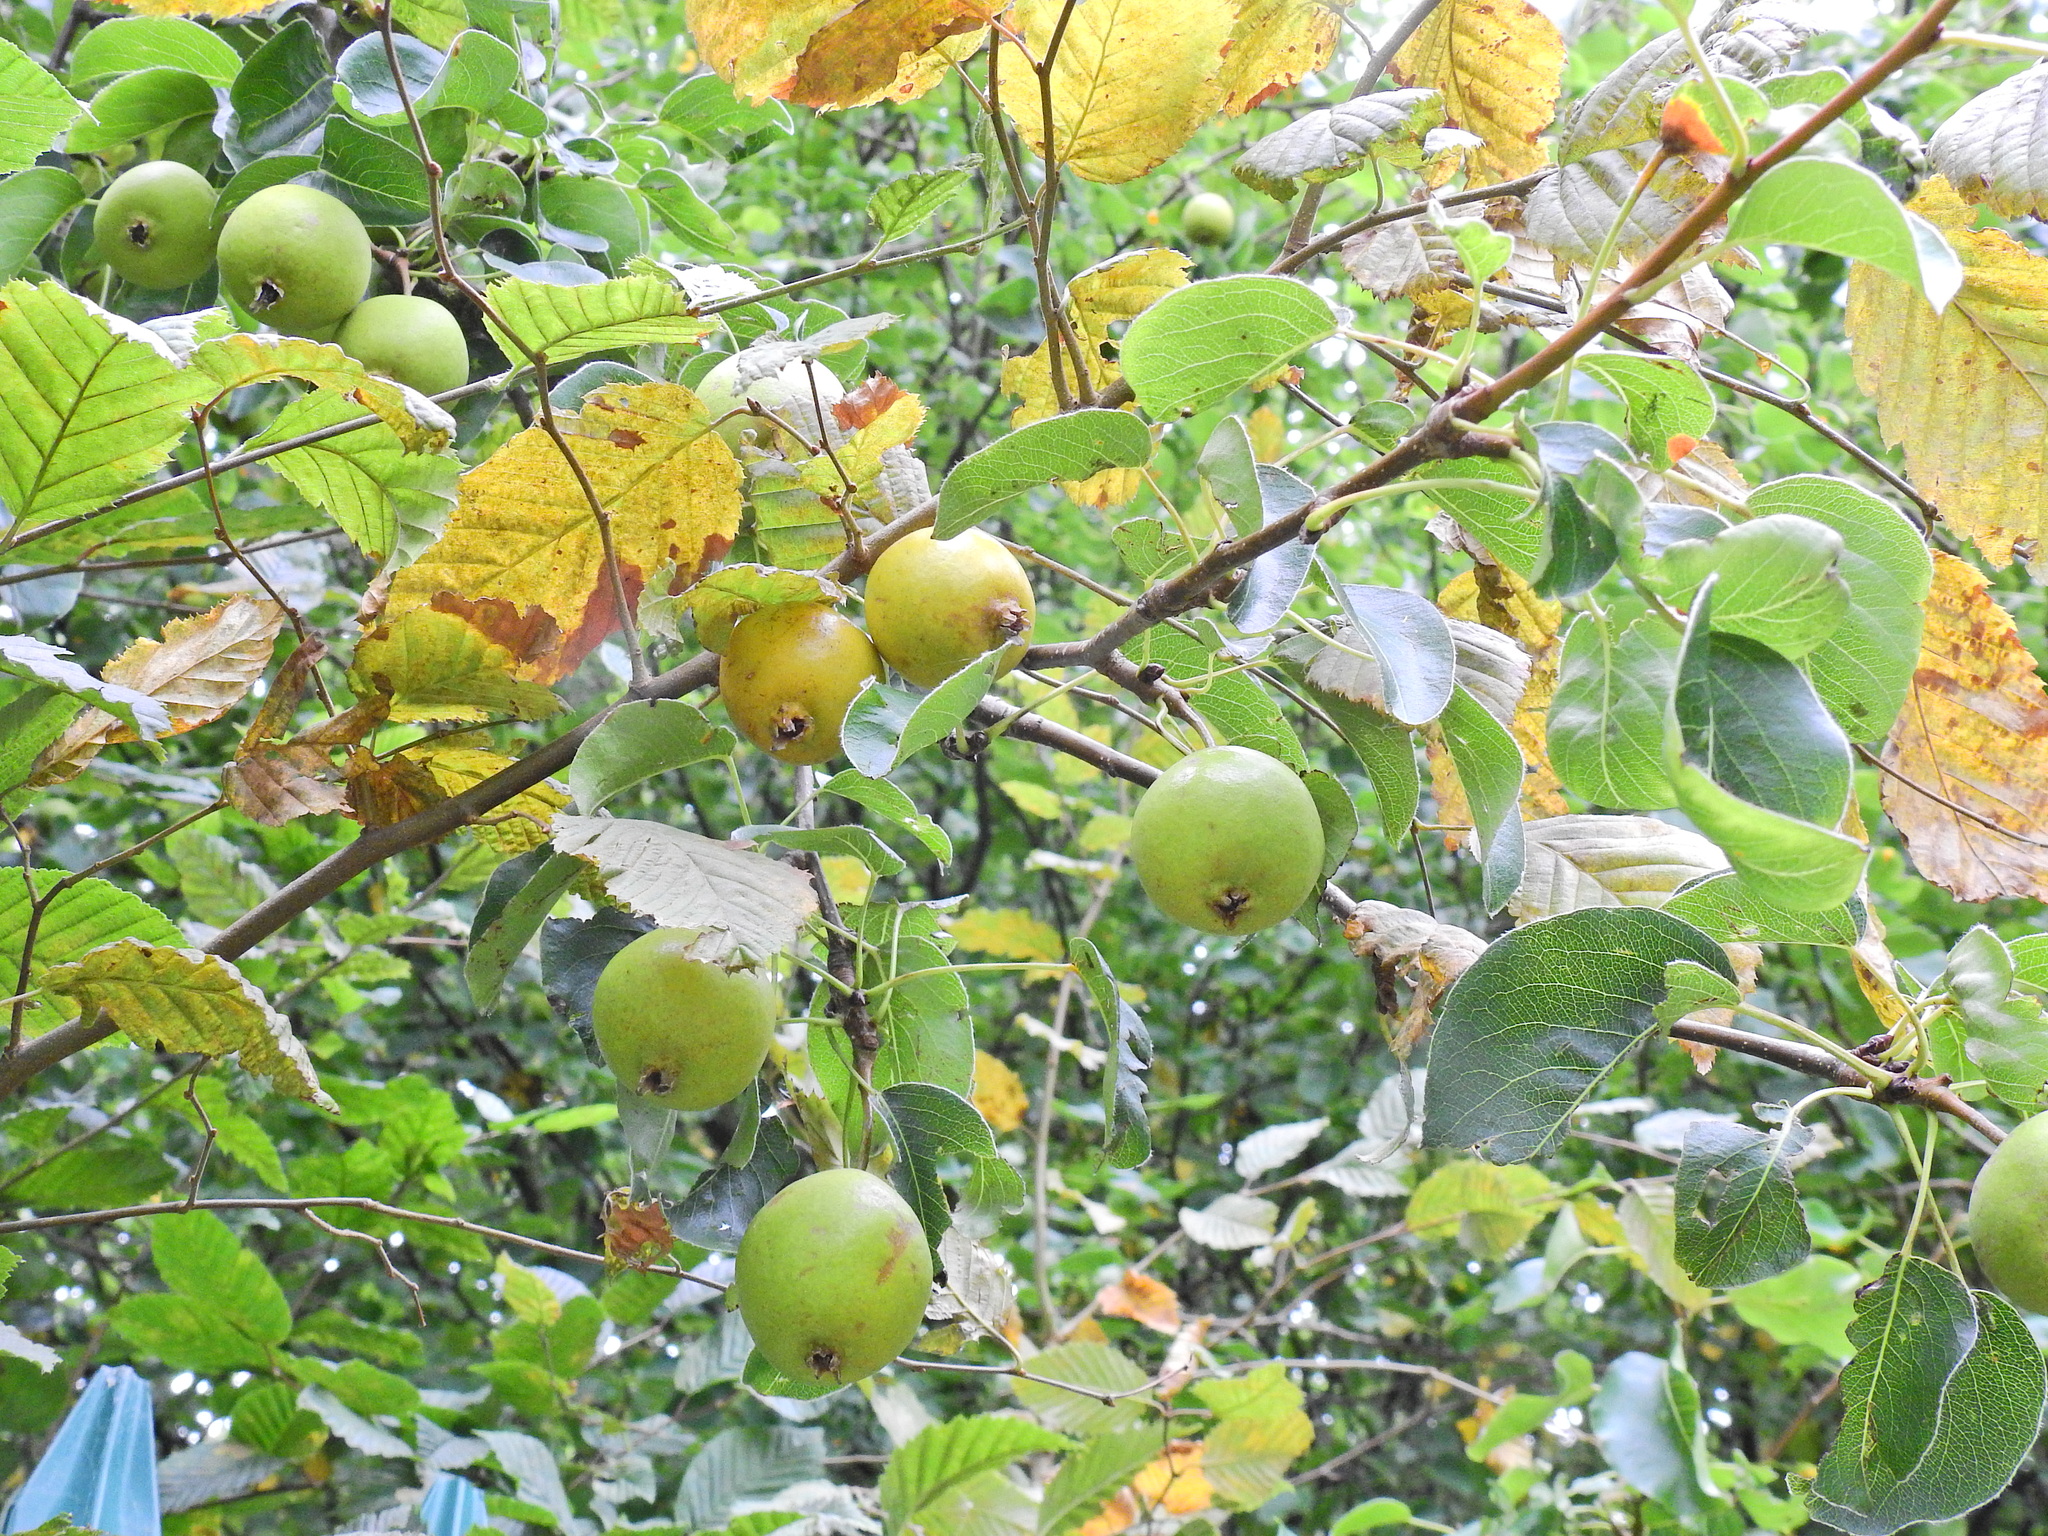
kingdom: Plantae
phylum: Tracheophyta
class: Magnoliopsida
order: Rosales
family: Rosaceae
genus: Malus
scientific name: Malus domestica
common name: Apple
